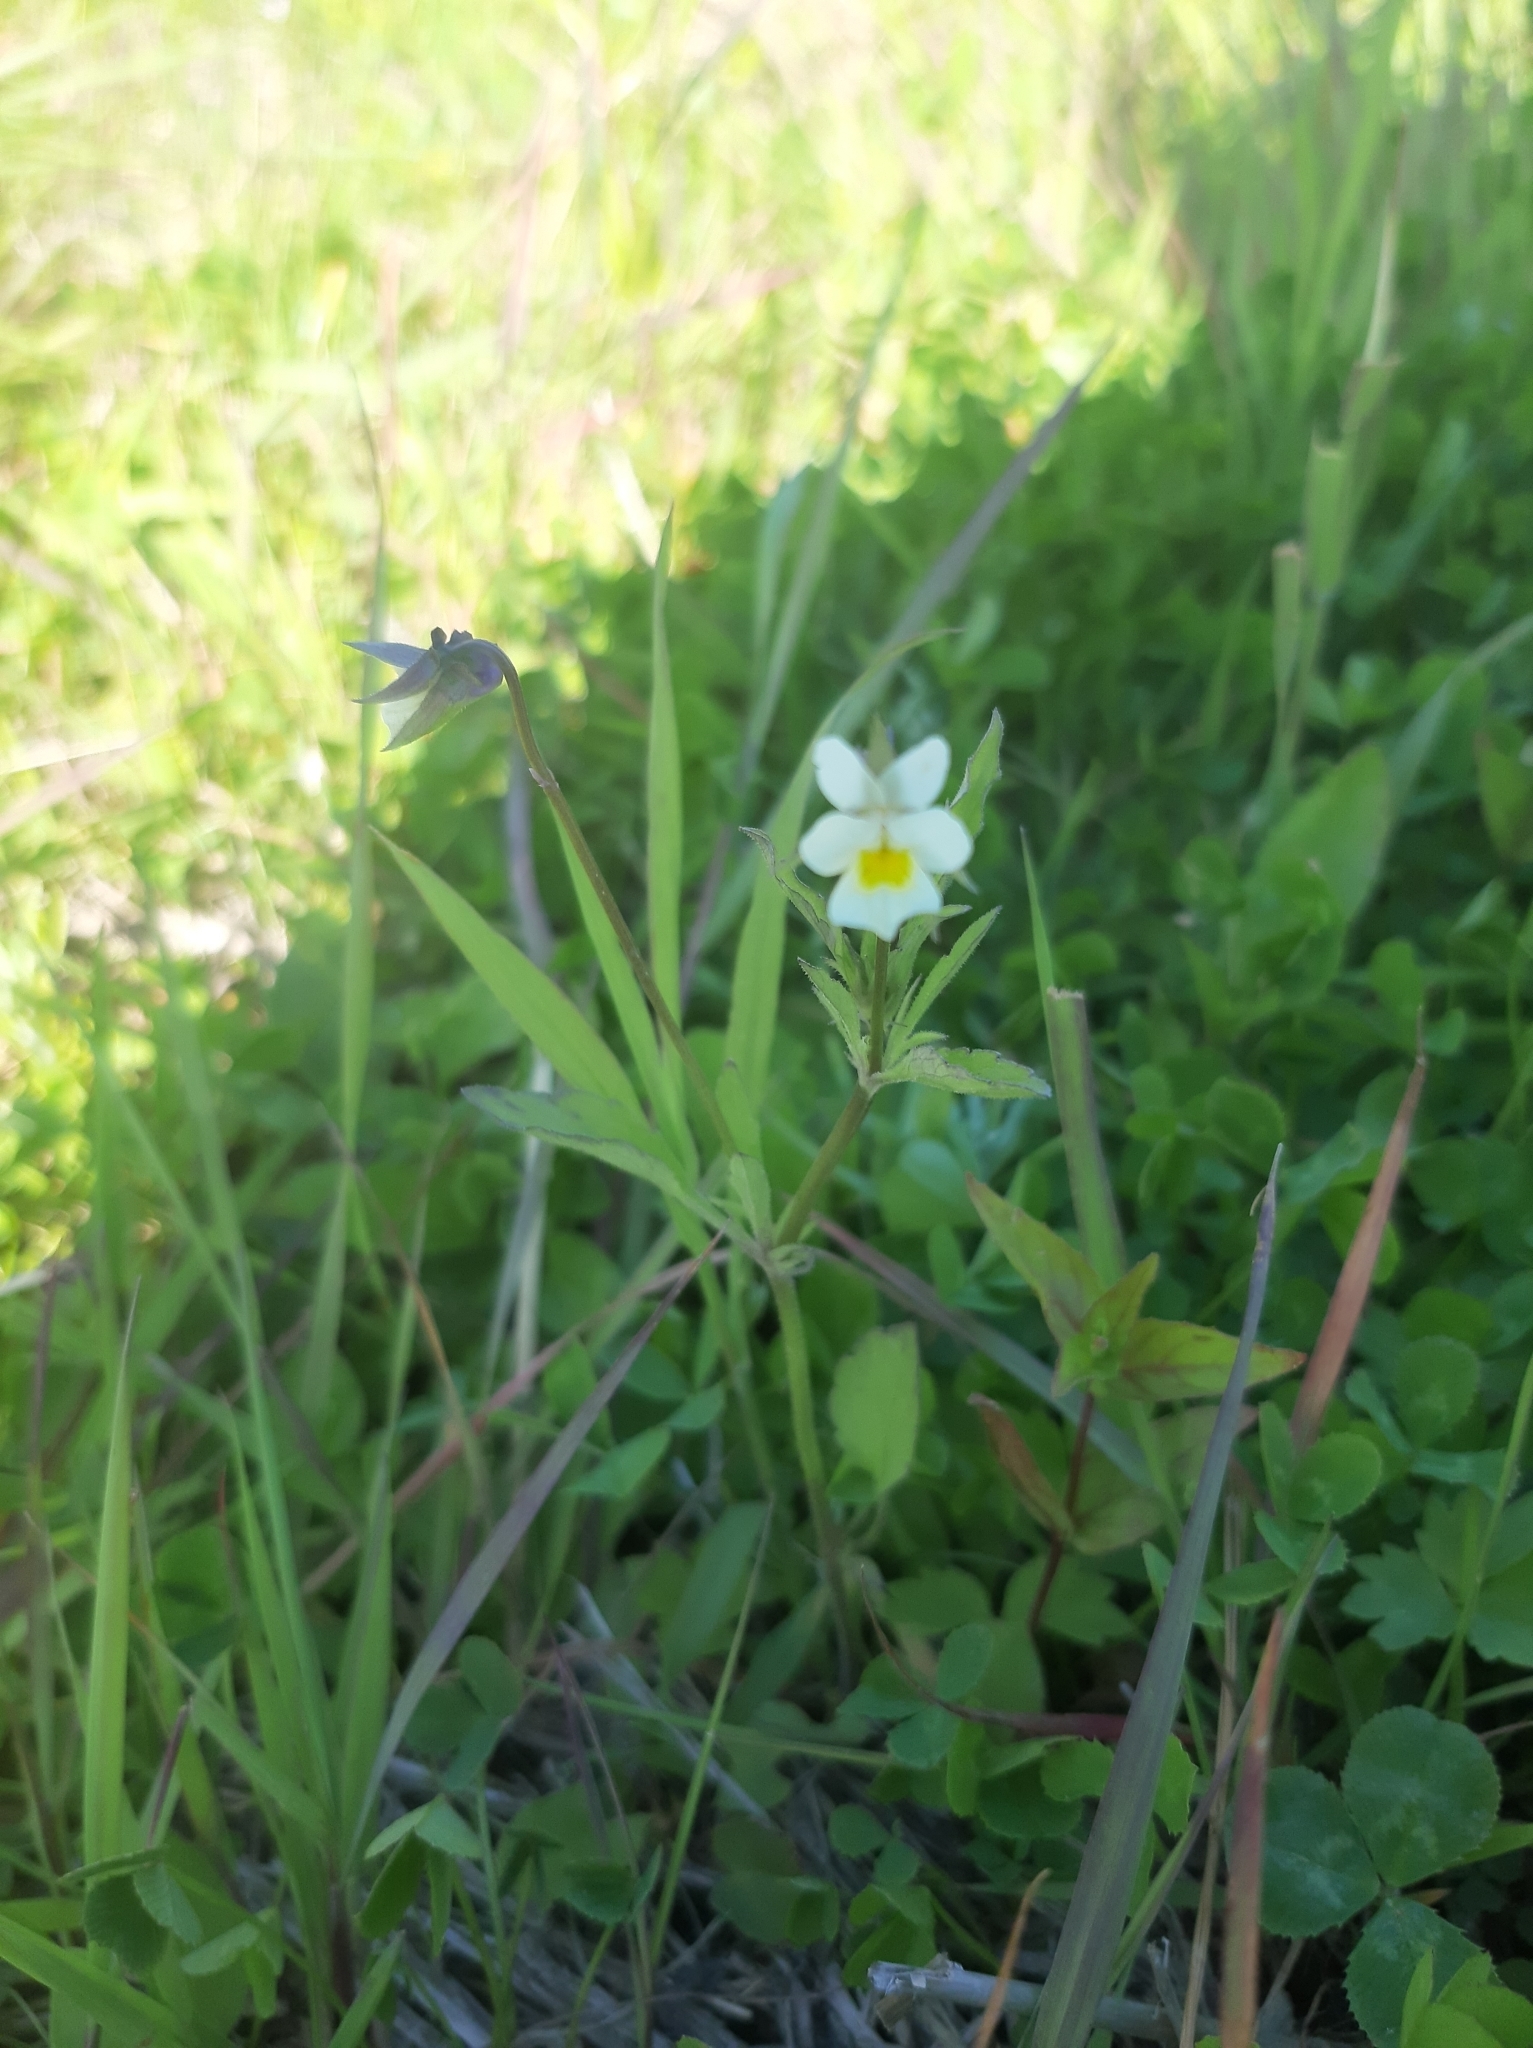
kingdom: Plantae
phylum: Tracheophyta
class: Magnoliopsida
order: Malpighiales
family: Violaceae
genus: Viola
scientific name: Viola arvensis
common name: Field pansy
